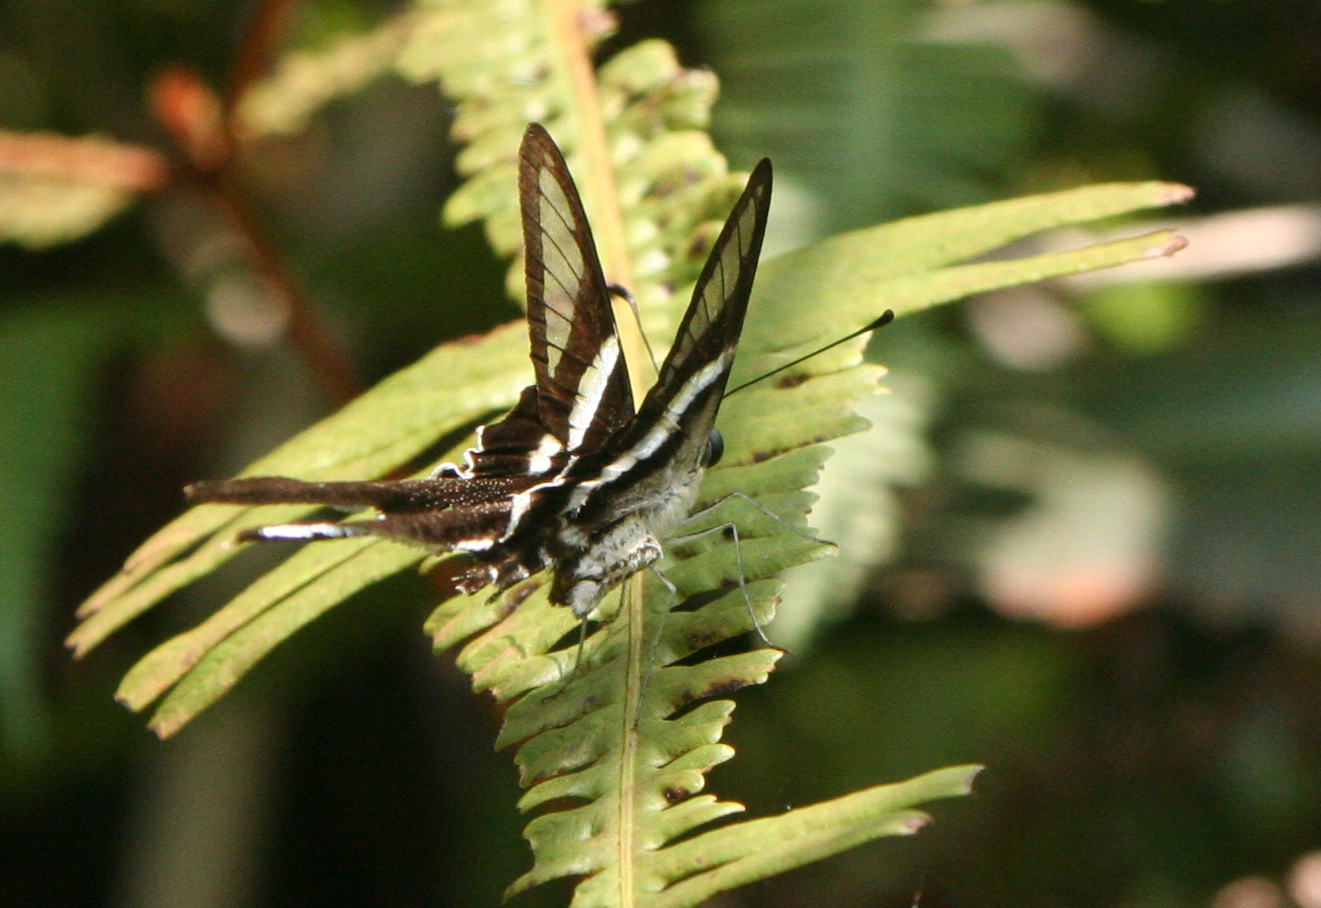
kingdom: Animalia
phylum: Arthropoda
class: Insecta
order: Lepidoptera
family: Papilionidae
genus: Lamproptera
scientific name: Lamproptera curius
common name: White dragontail
